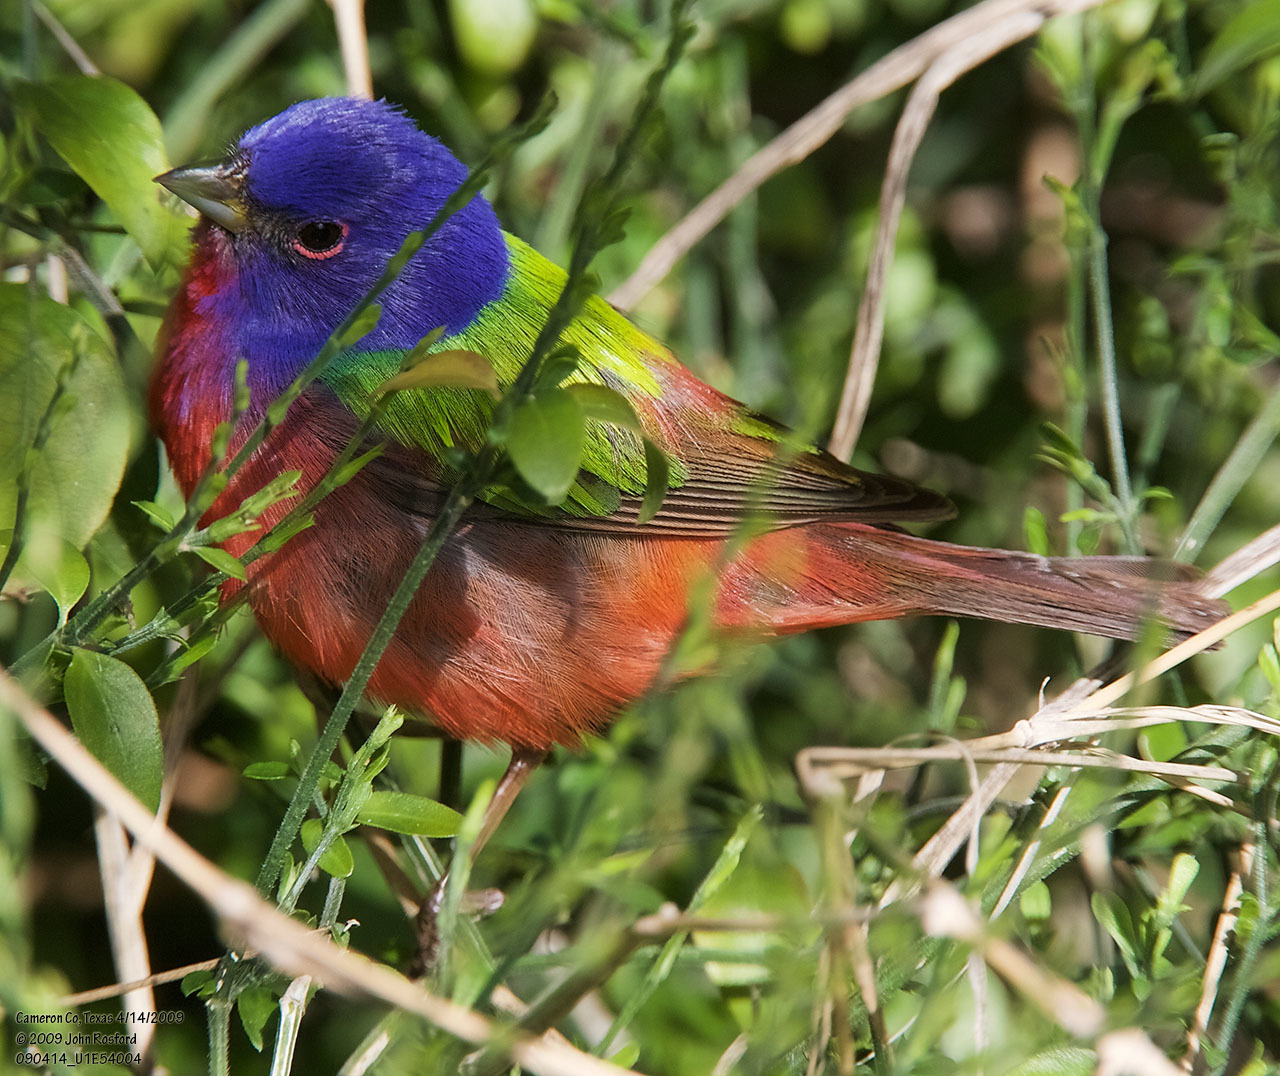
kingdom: Animalia
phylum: Chordata
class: Aves
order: Passeriformes
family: Cardinalidae
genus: Passerina
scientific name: Passerina ciris
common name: Painted bunting
